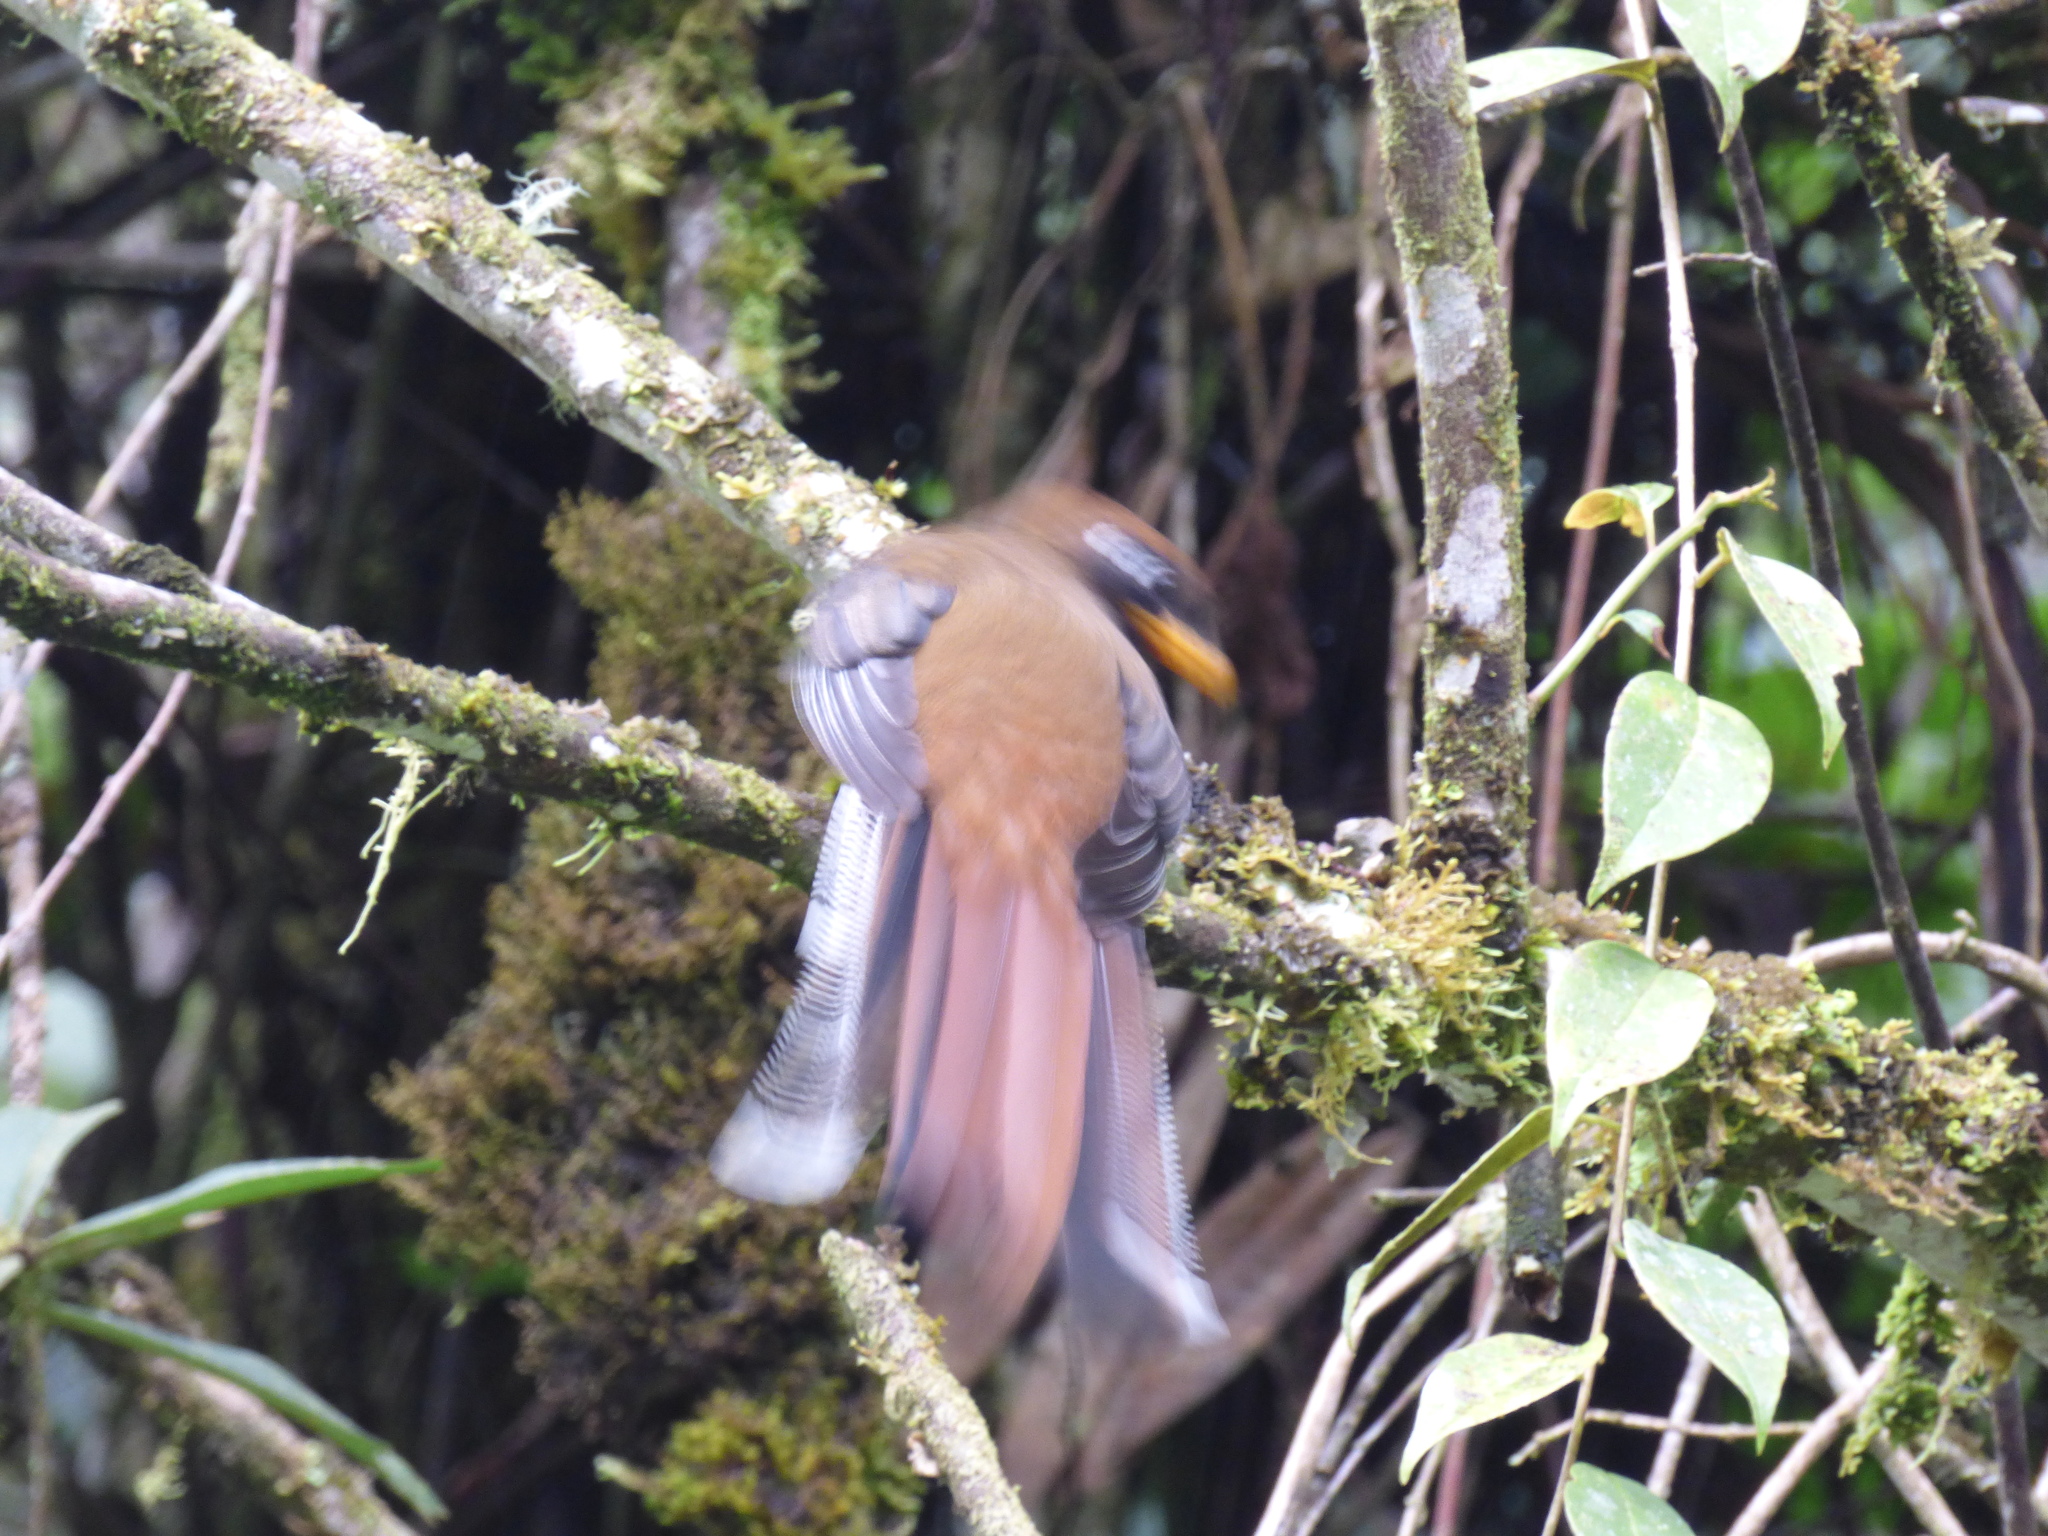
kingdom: Animalia
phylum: Chordata
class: Aves
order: Trogoniformes
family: Trogonidae
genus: Trogon
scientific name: Trogon personatus
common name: Masked trogon
